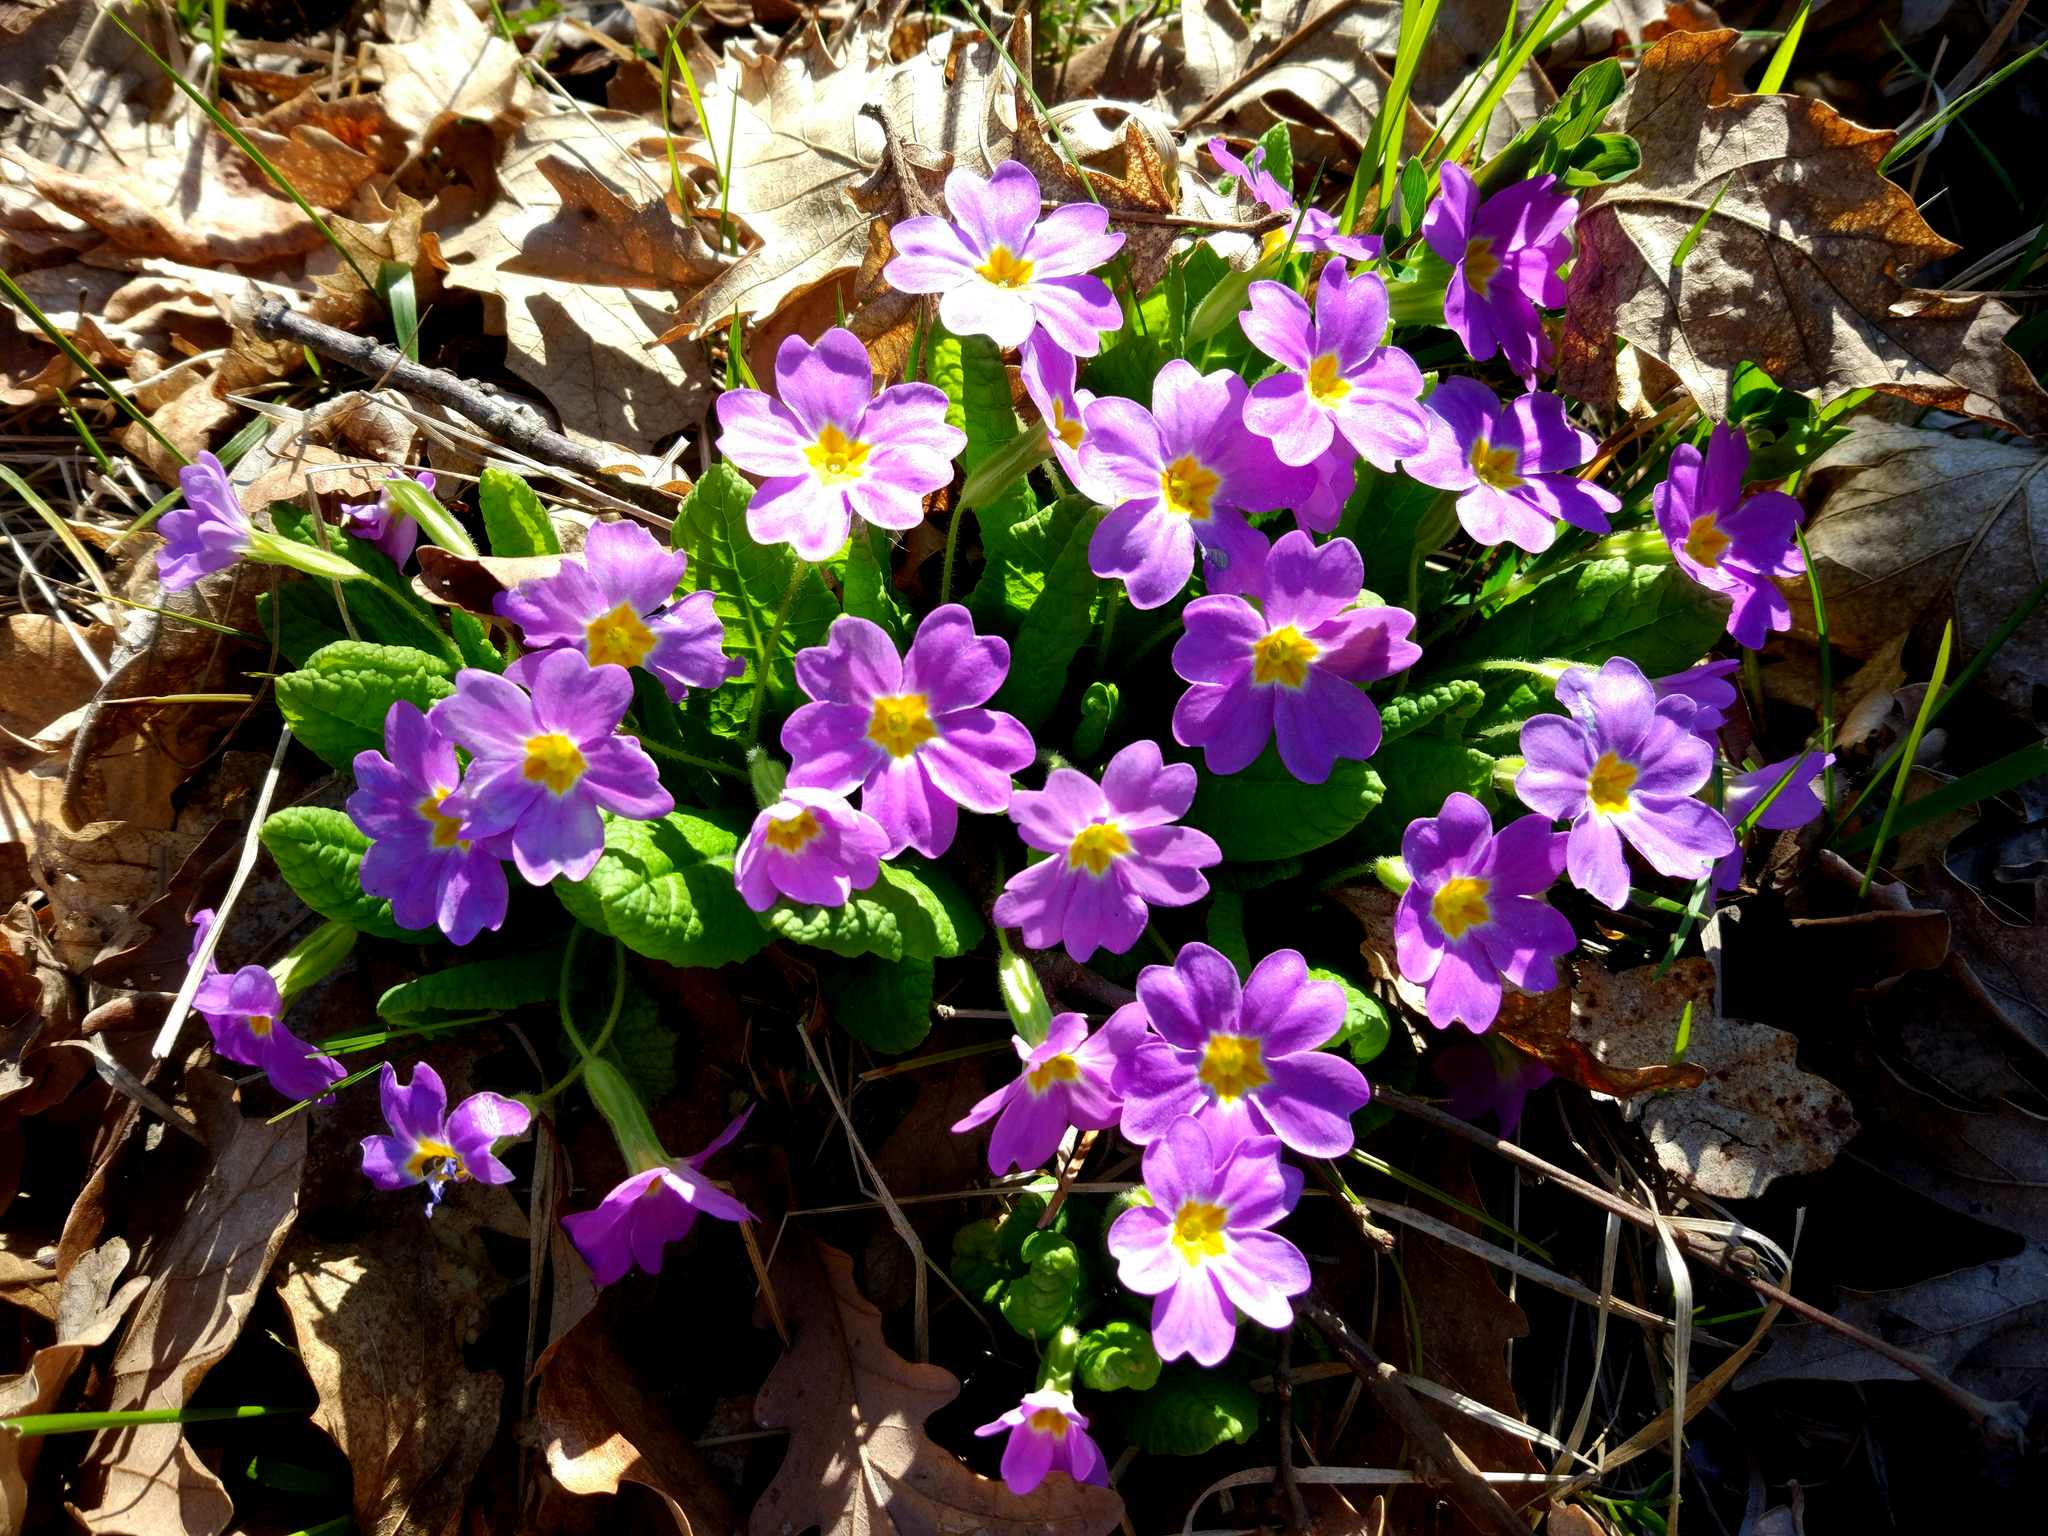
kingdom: Plantae
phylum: Tracheophyta
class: Magnoliopsida
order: Ericales
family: Primulaceae
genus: Primula
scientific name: Primula vulgaris
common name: Primrose
